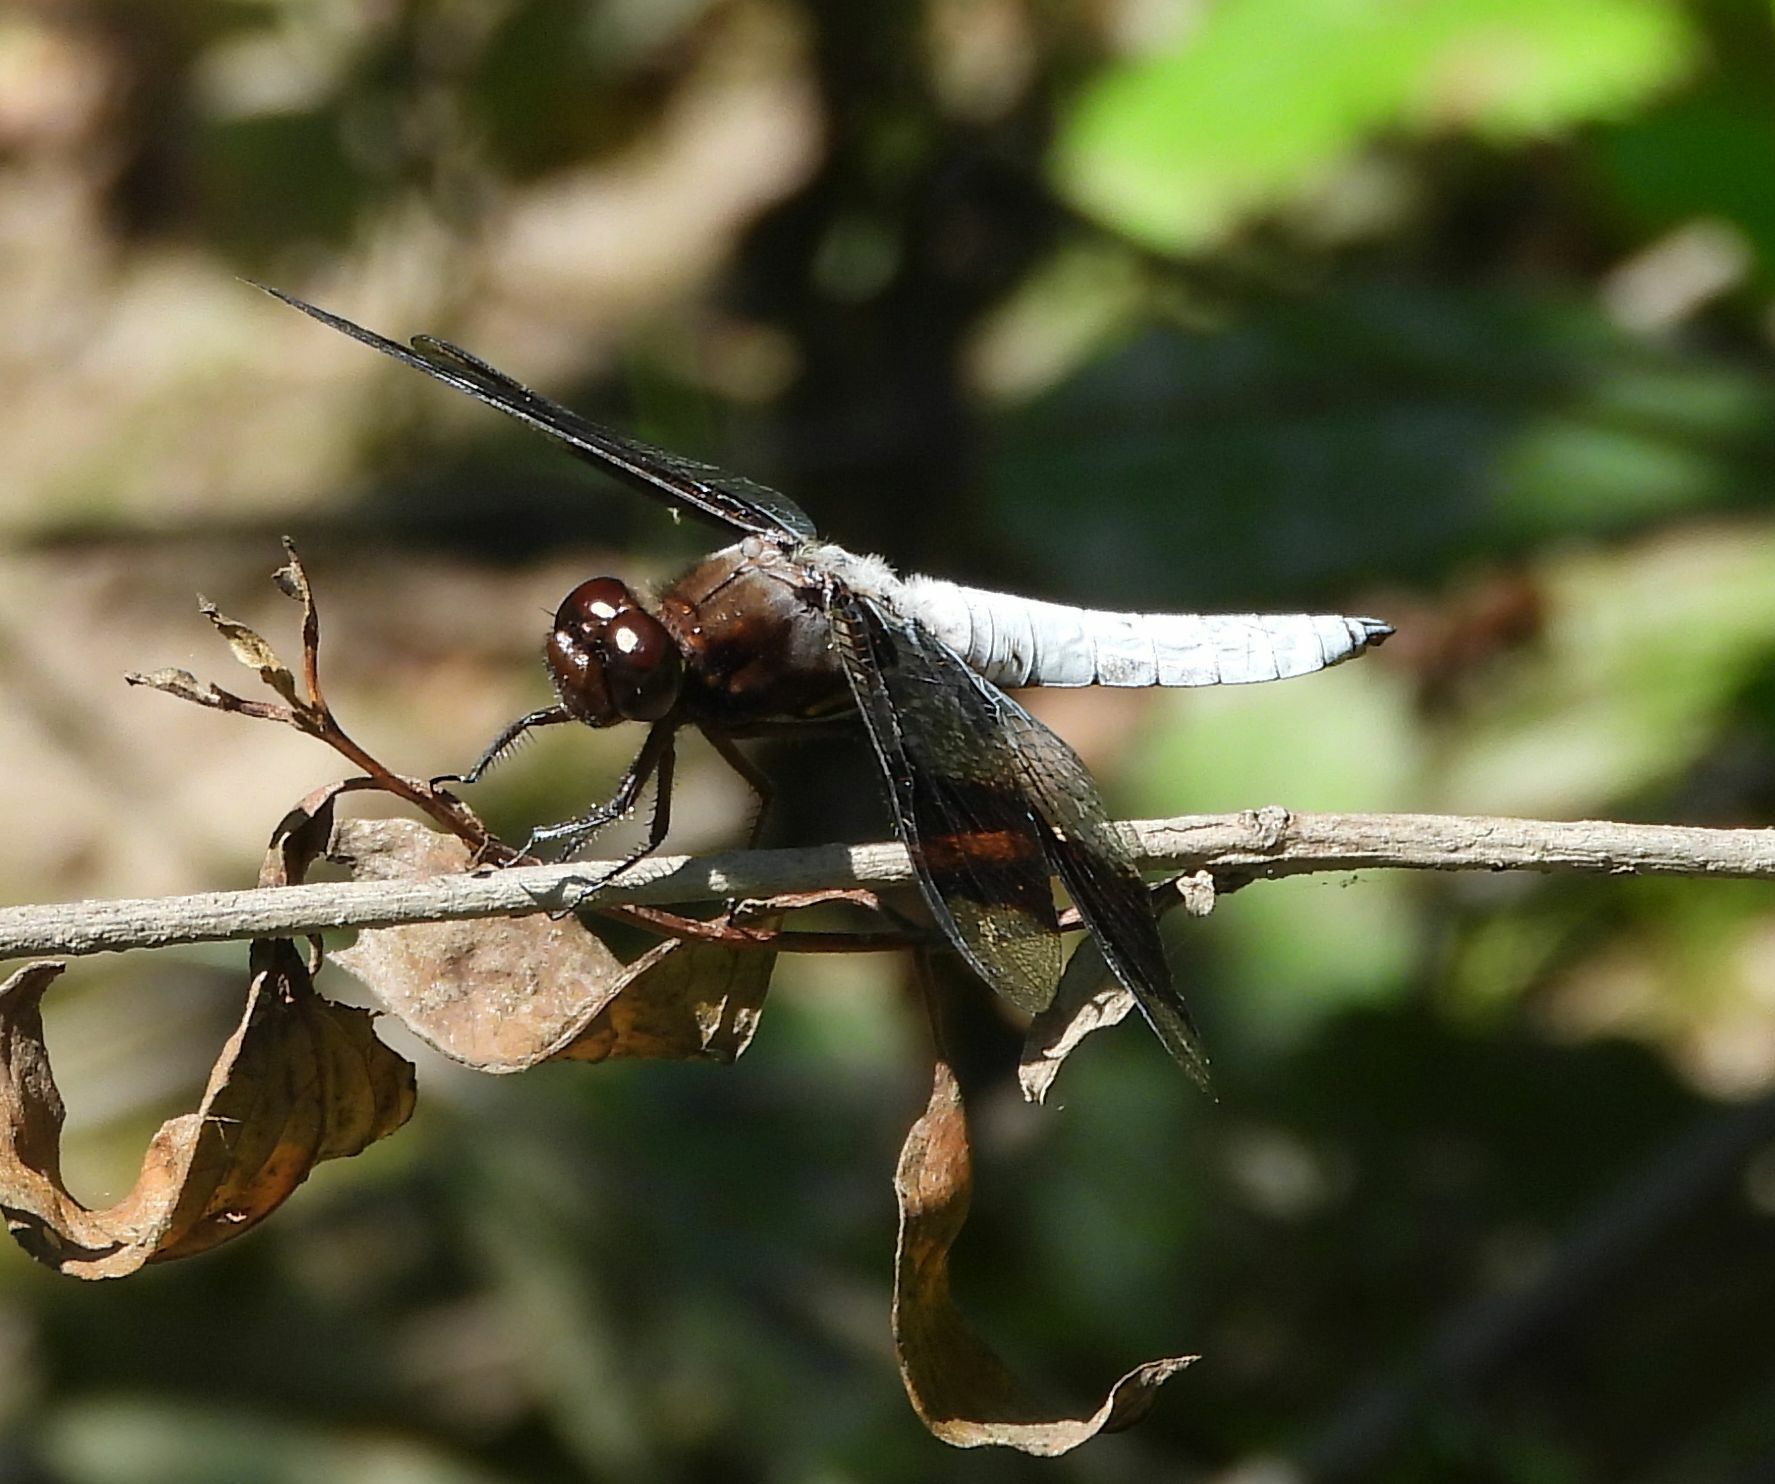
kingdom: Animalia
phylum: Arthropoda
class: Insecta
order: Odonata
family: Libellulidae
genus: Plathemis
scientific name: Plathemis lydia
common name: Common whitetail
